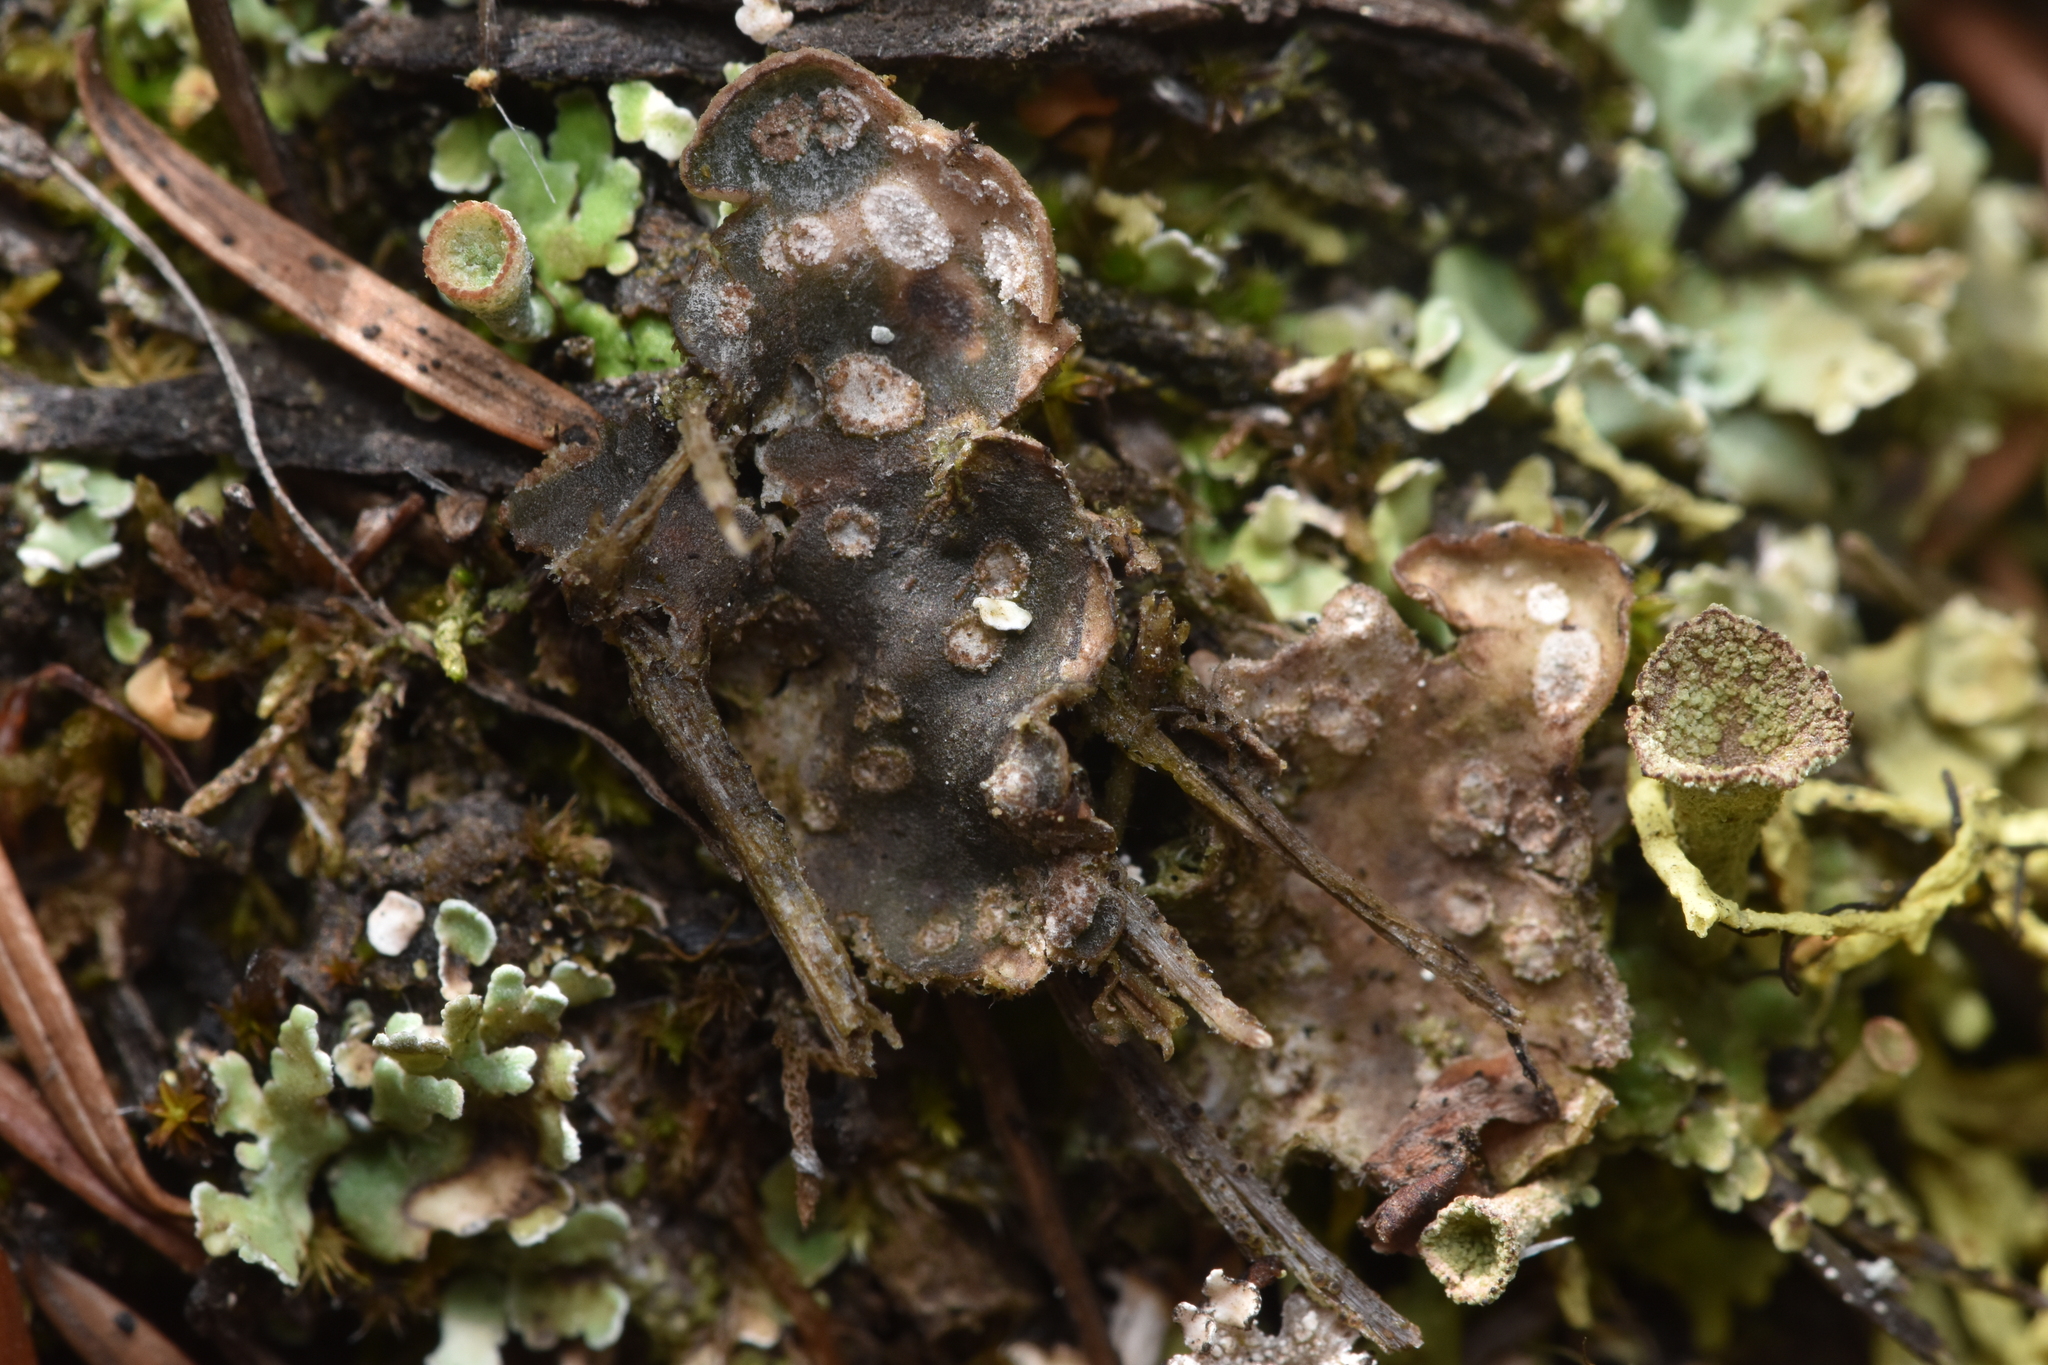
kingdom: Fungi
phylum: Ascomycota
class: Lecanoromycetes
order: Peltigerales
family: Peltigeraceae
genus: Peltigera
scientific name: Peltigera didactyla
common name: Alternating dog lichen
